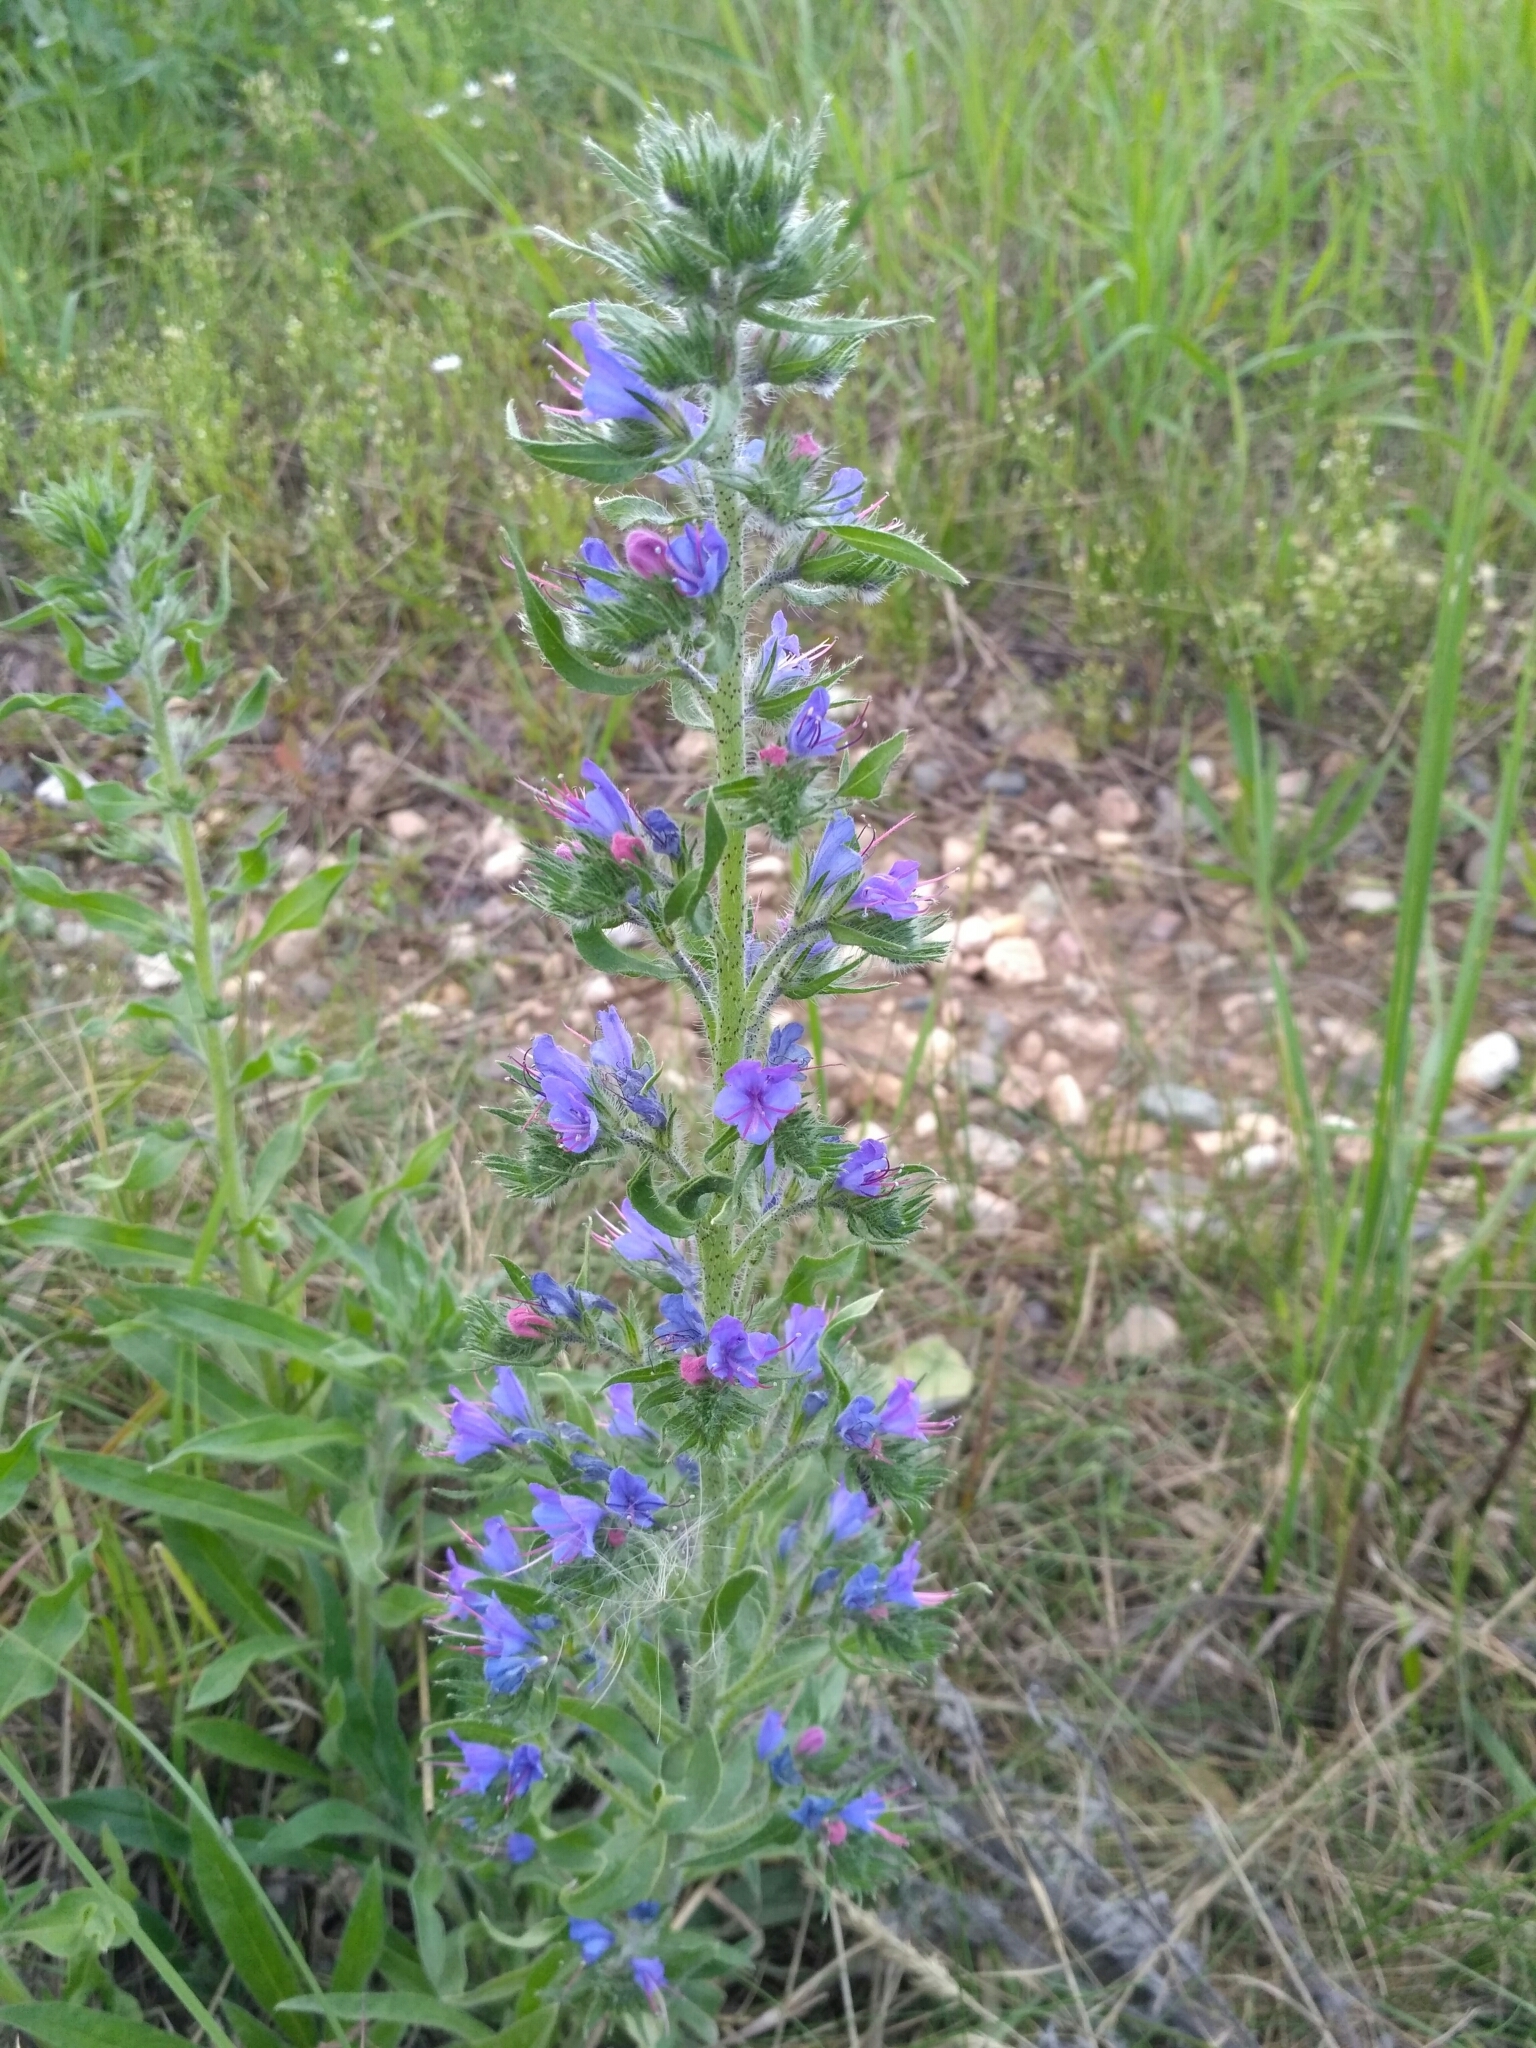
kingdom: Plantae
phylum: Tracheophyta
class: Magnoliopsida
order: Boraginales
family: Boraginaceae
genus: Echium
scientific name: Echium vulgare
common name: Common viper's bugloss
